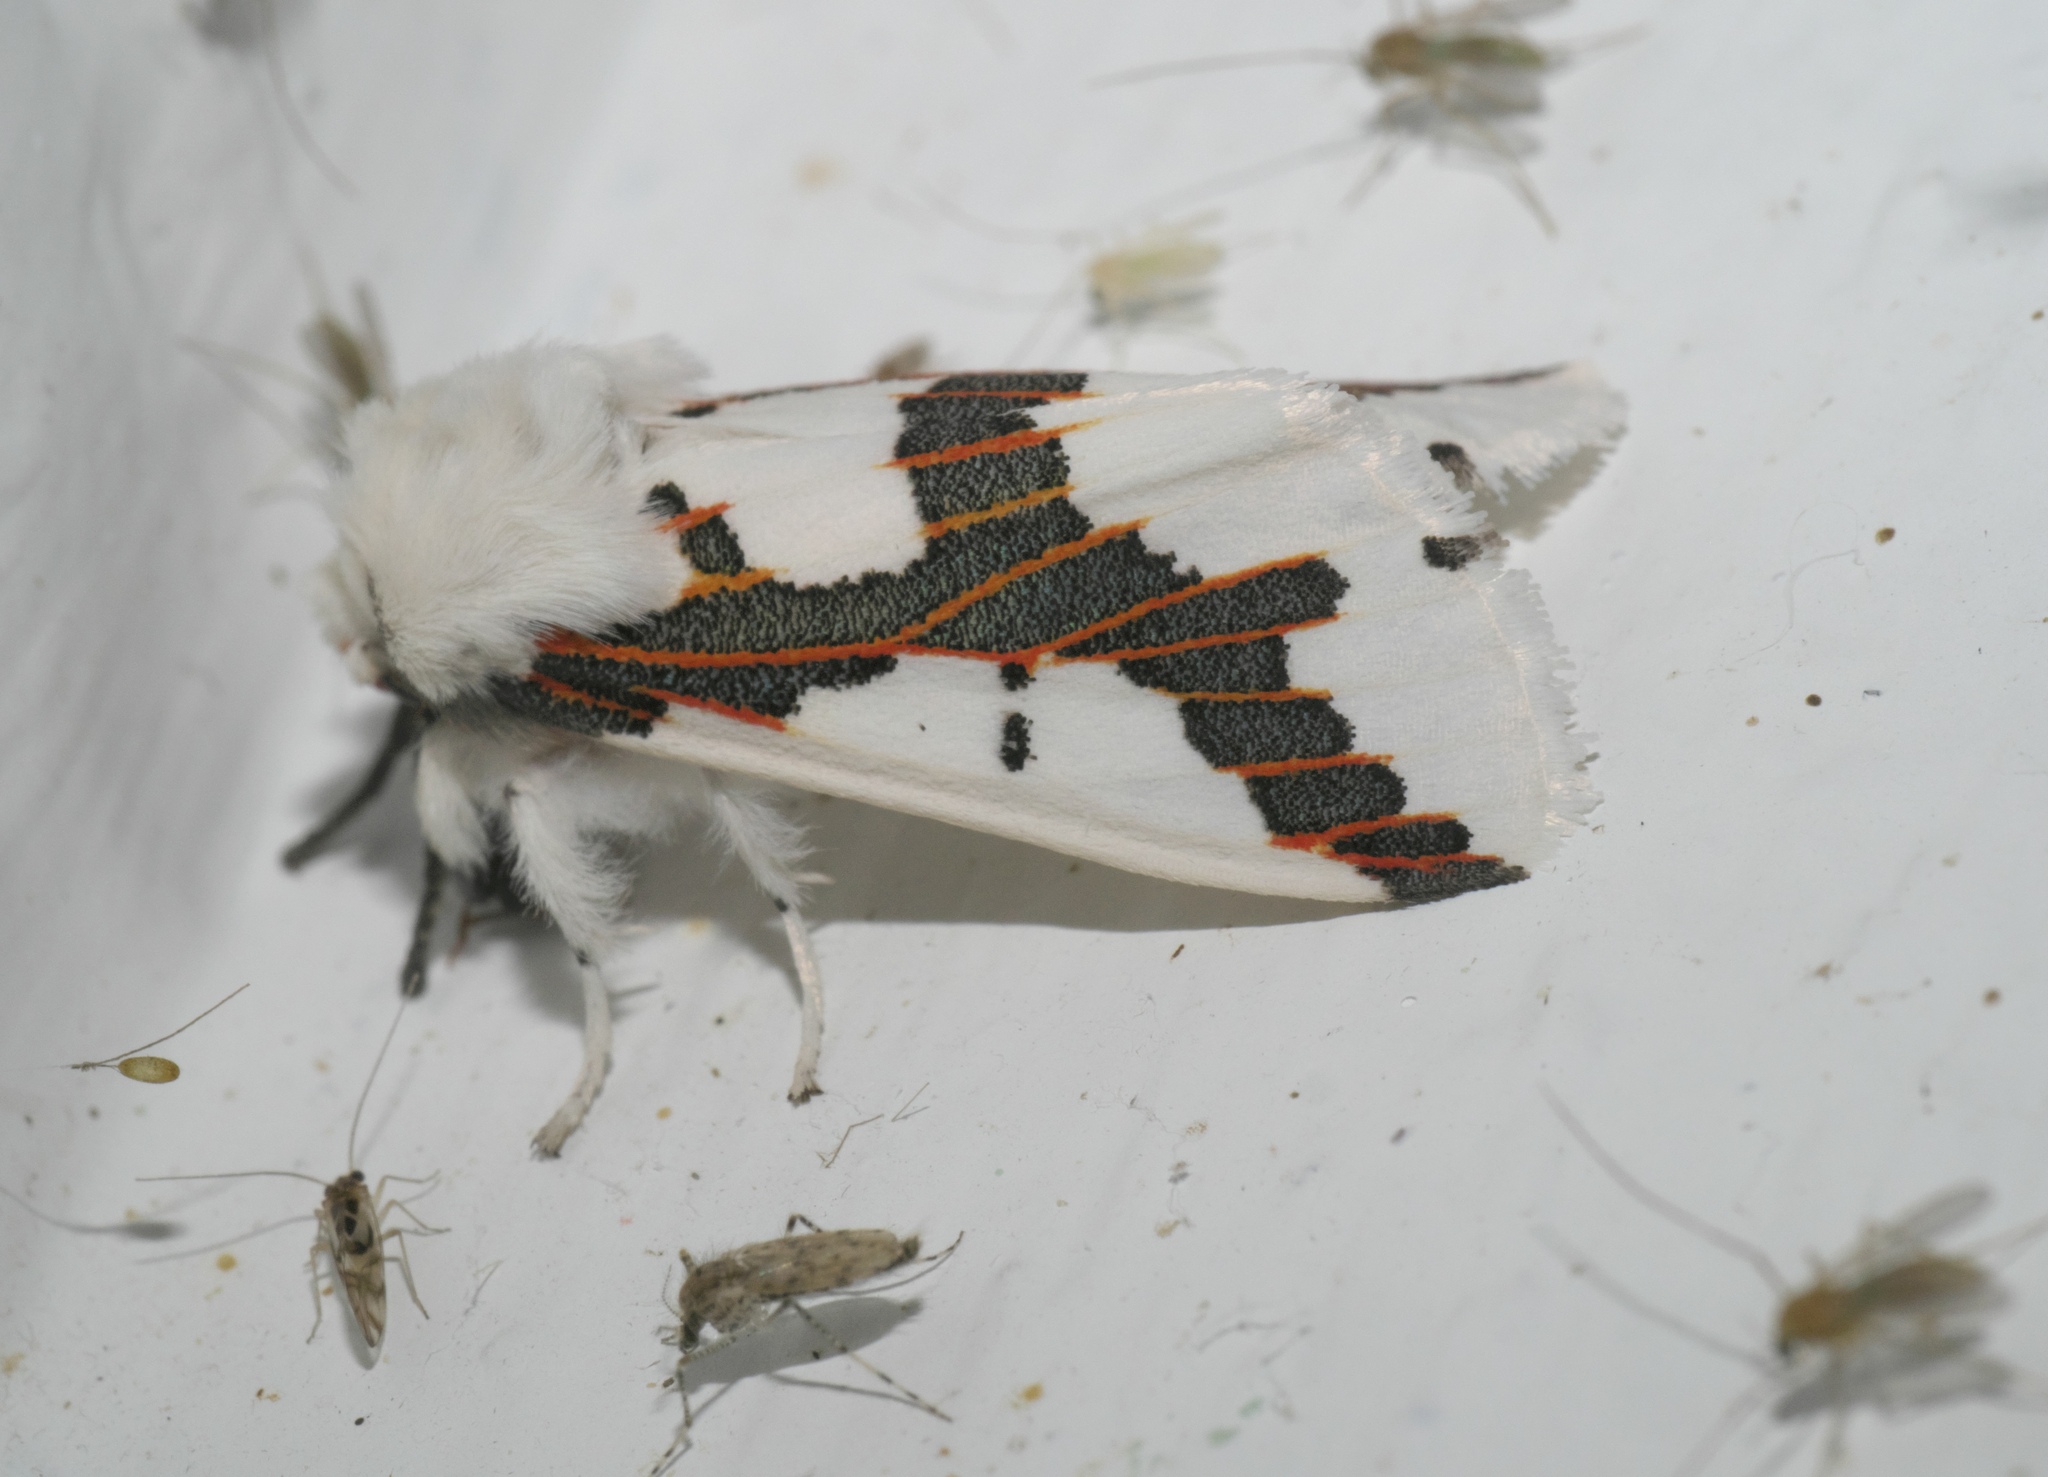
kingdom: Animalia
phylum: Arthropoda
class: Insecta
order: Lepidoptera
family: Erebidae
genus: Euerythra
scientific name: Euerythra phasma
